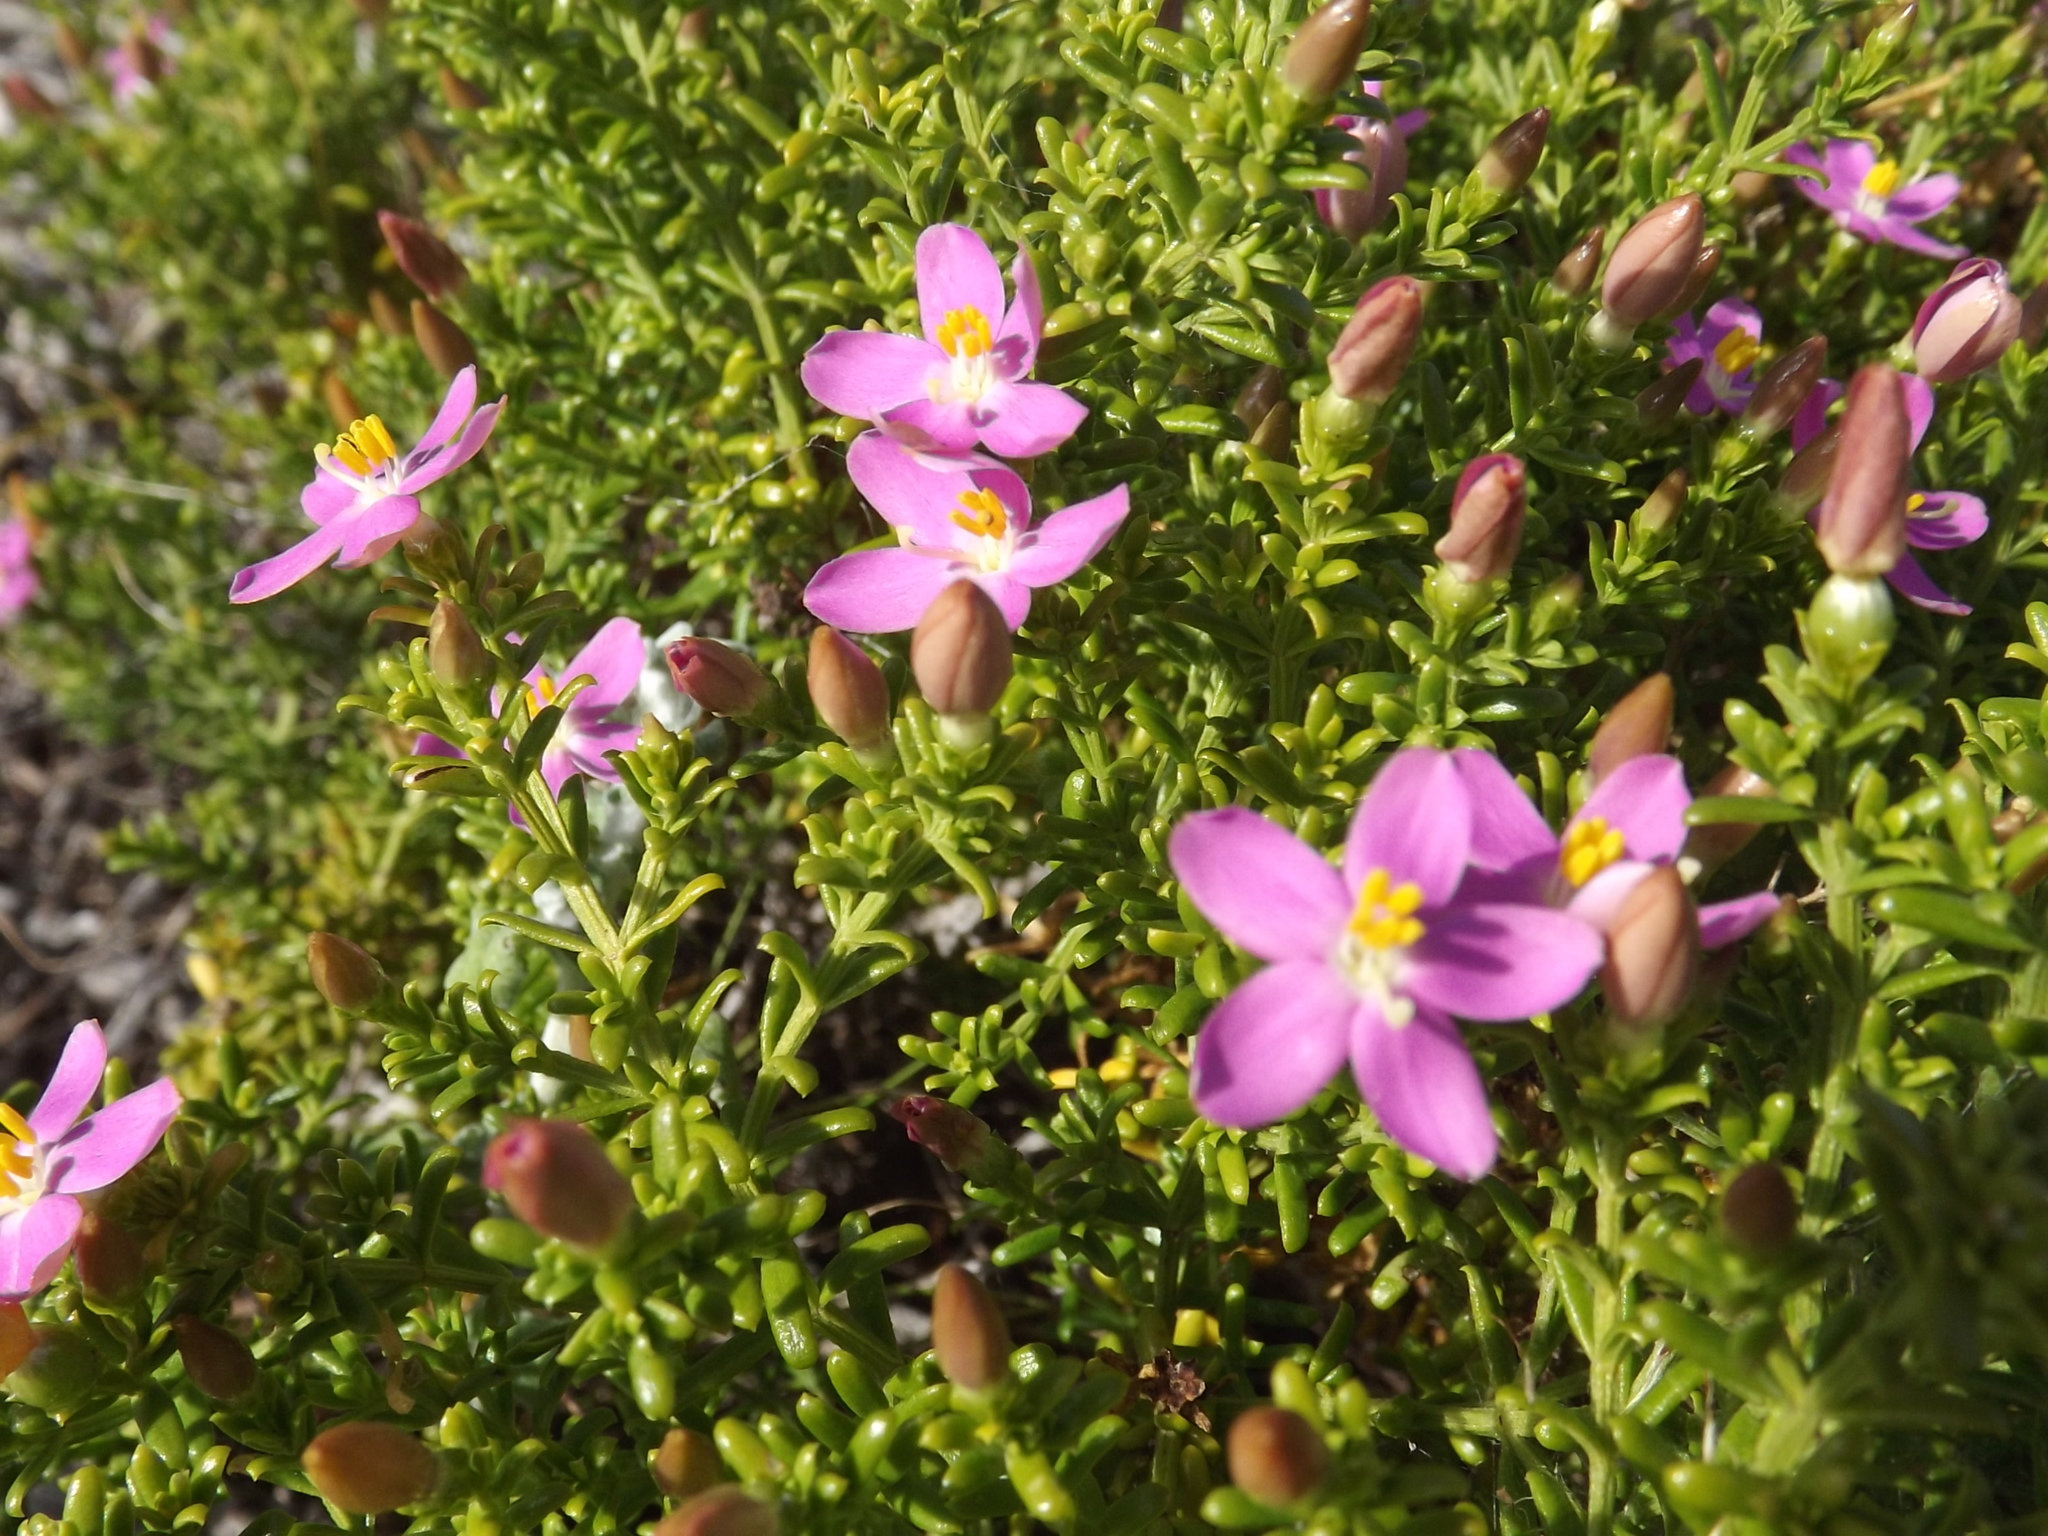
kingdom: Plantae
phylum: Tracheophyta
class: Magnoliopsida
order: Gentianales
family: Gentianaceae
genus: Chironia
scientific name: Chironia baccifera
